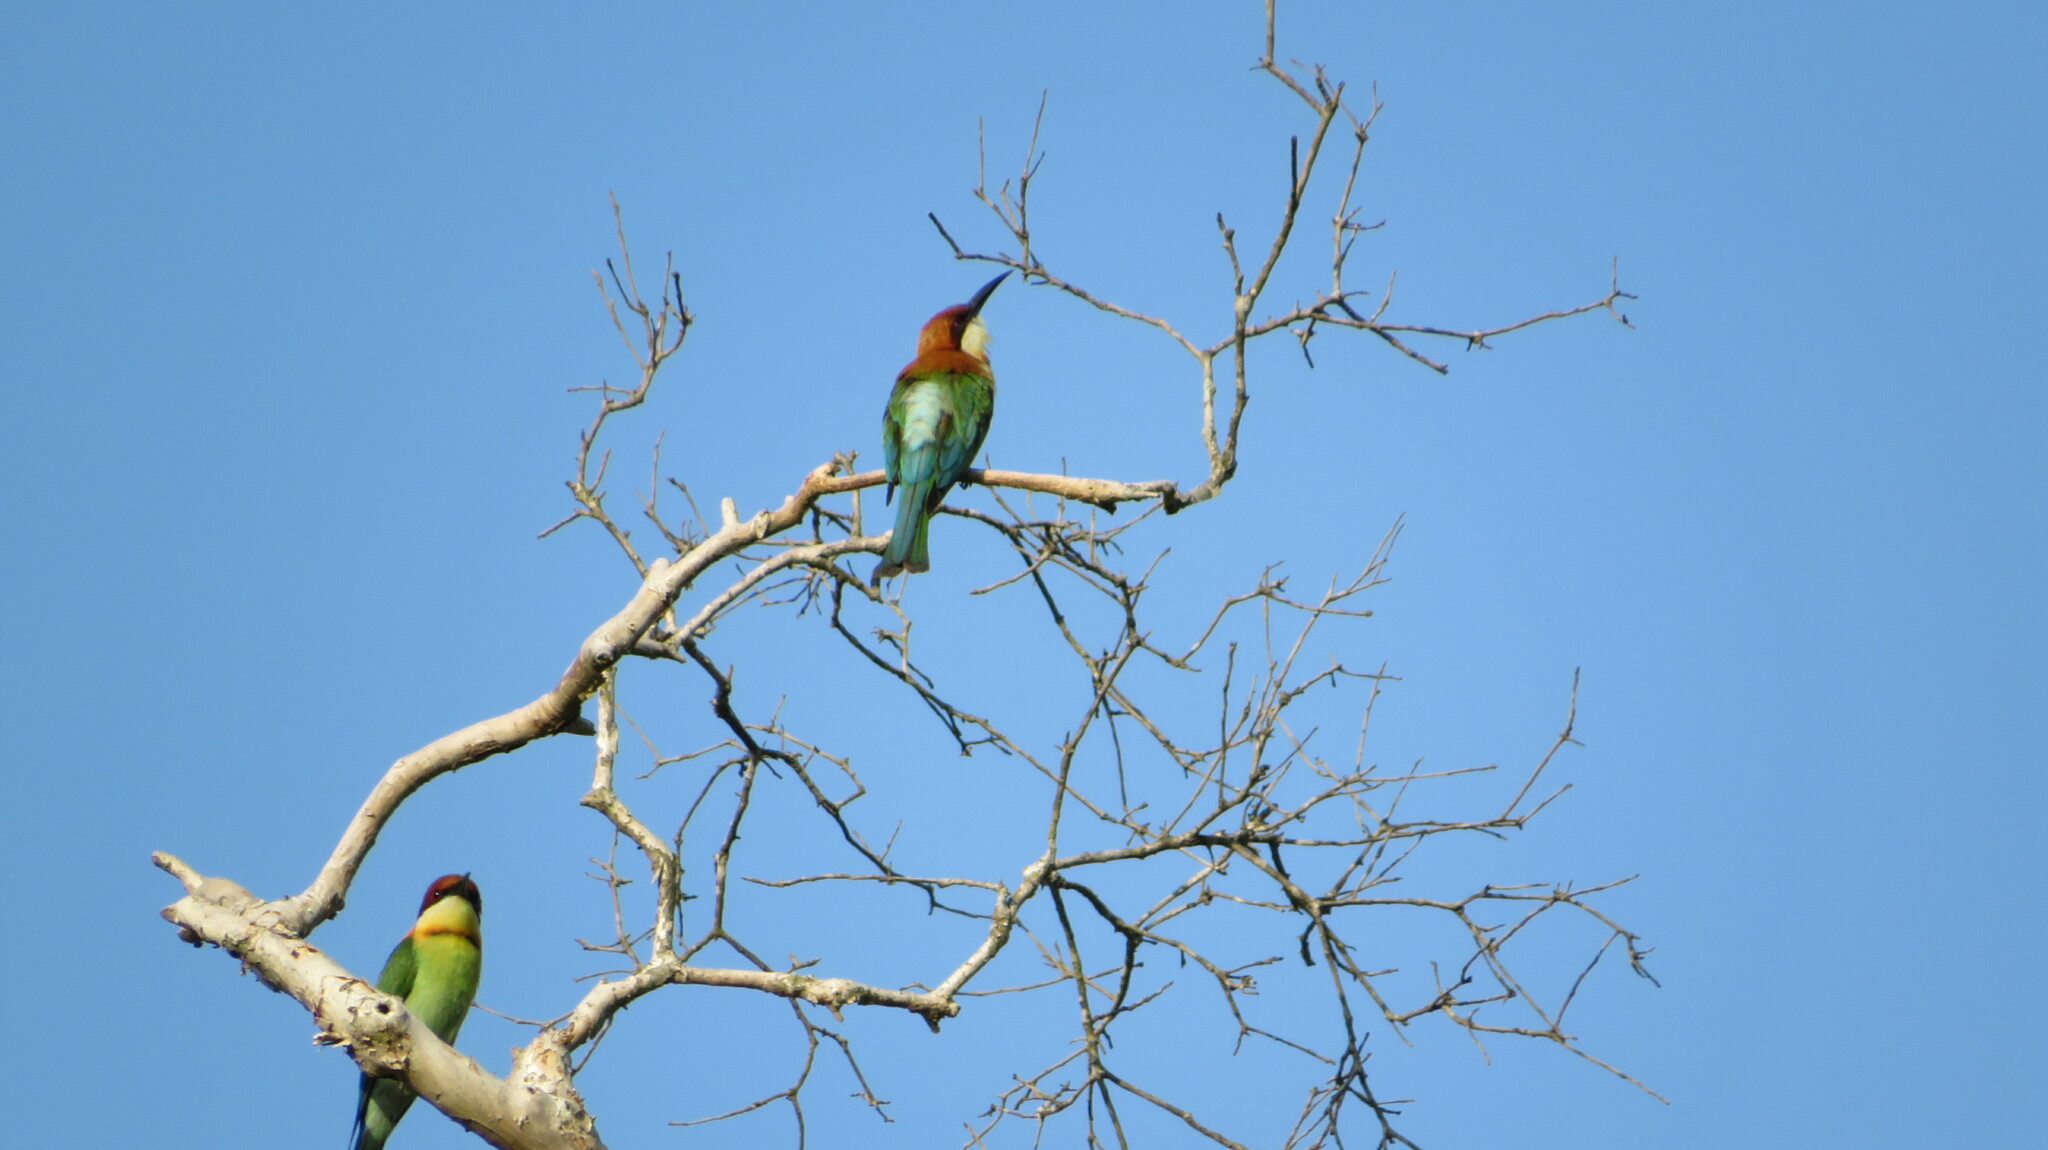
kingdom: Animalia
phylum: Chordata
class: Aves
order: Coraciiformes
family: Meropidae
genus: Merops
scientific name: Merops leschenaulti
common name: Chestnut-headed bee-eater
